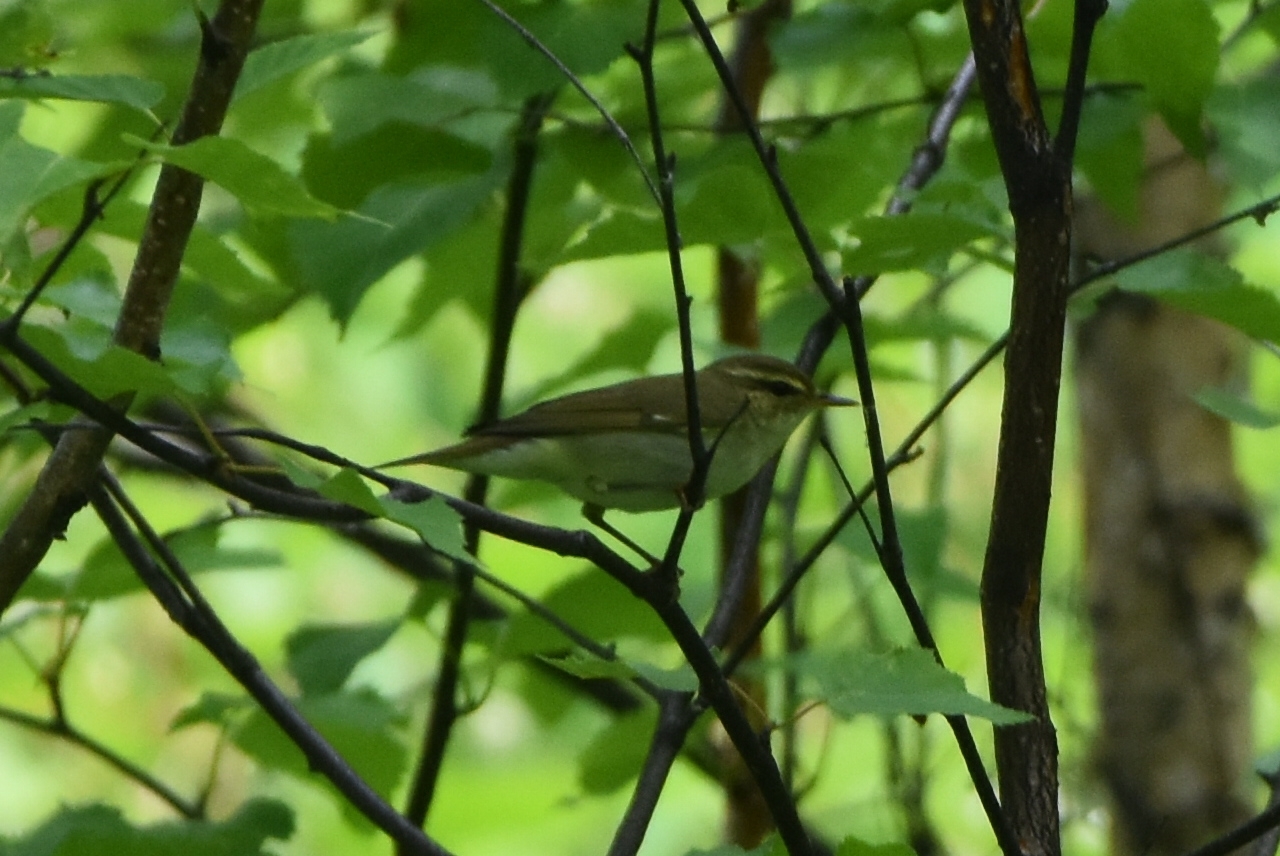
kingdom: Animalia
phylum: Chordata
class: Aves
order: Passeriformes
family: Phylloscopidae
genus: Phylloscopus
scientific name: Phylloscopus examinandus
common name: Kamchatka leaf warbler
